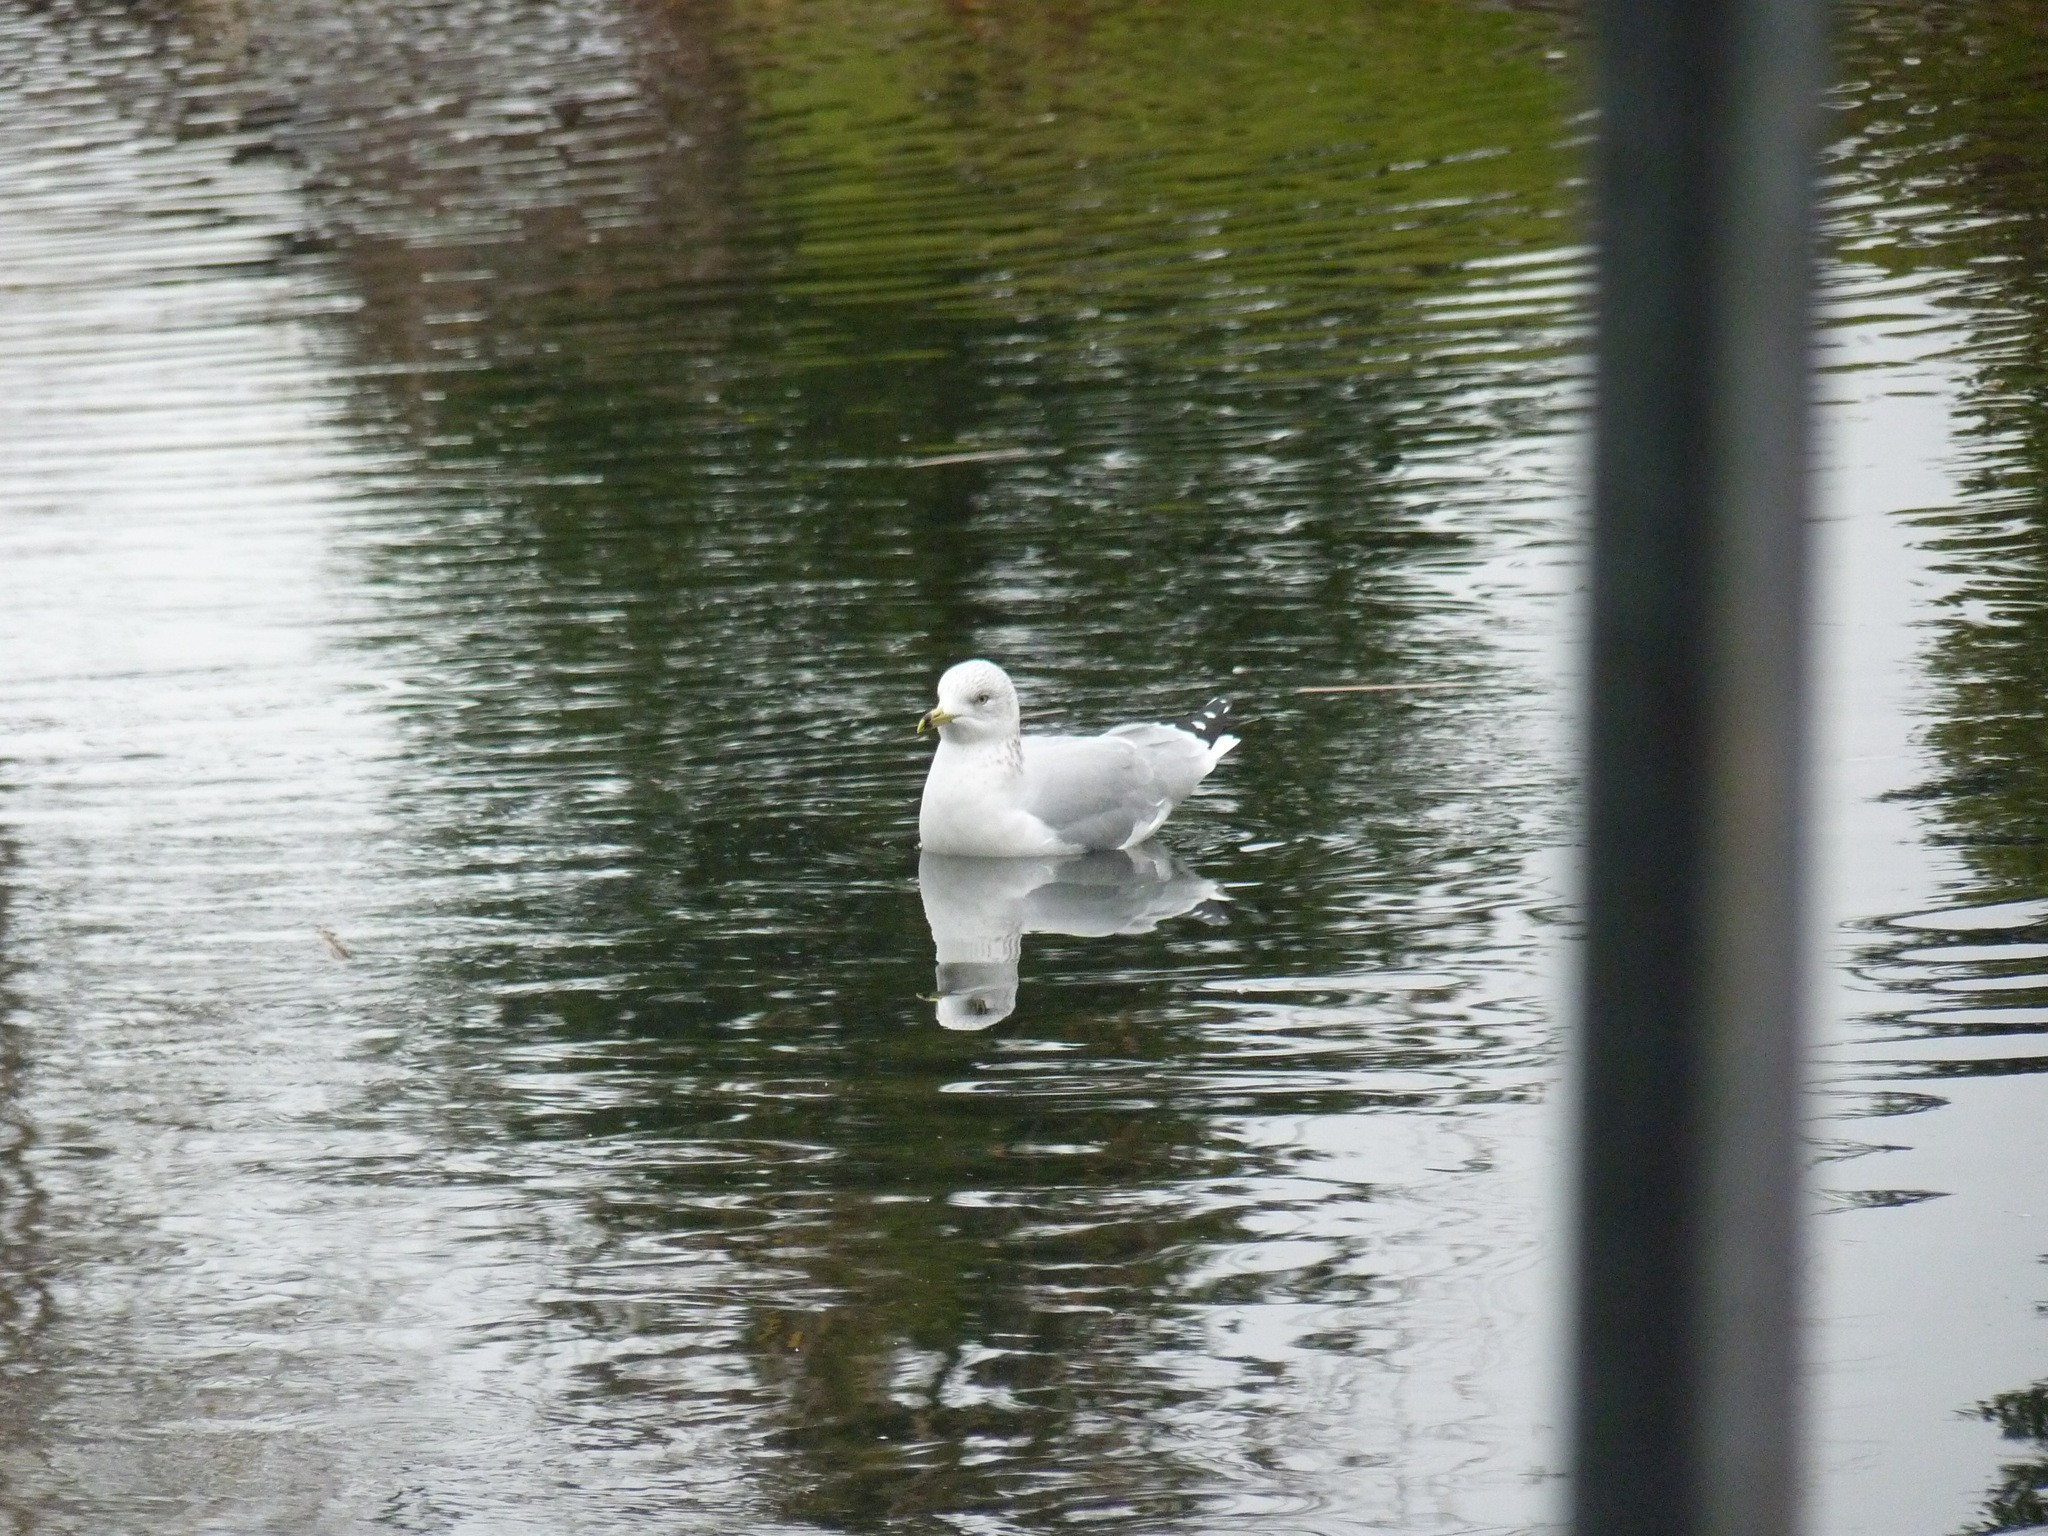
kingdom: Animalia
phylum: Chordata
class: Aves
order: Charadriiformes
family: Laridae
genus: Larus
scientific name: Larus delawarensis
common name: Ring-billed gull
